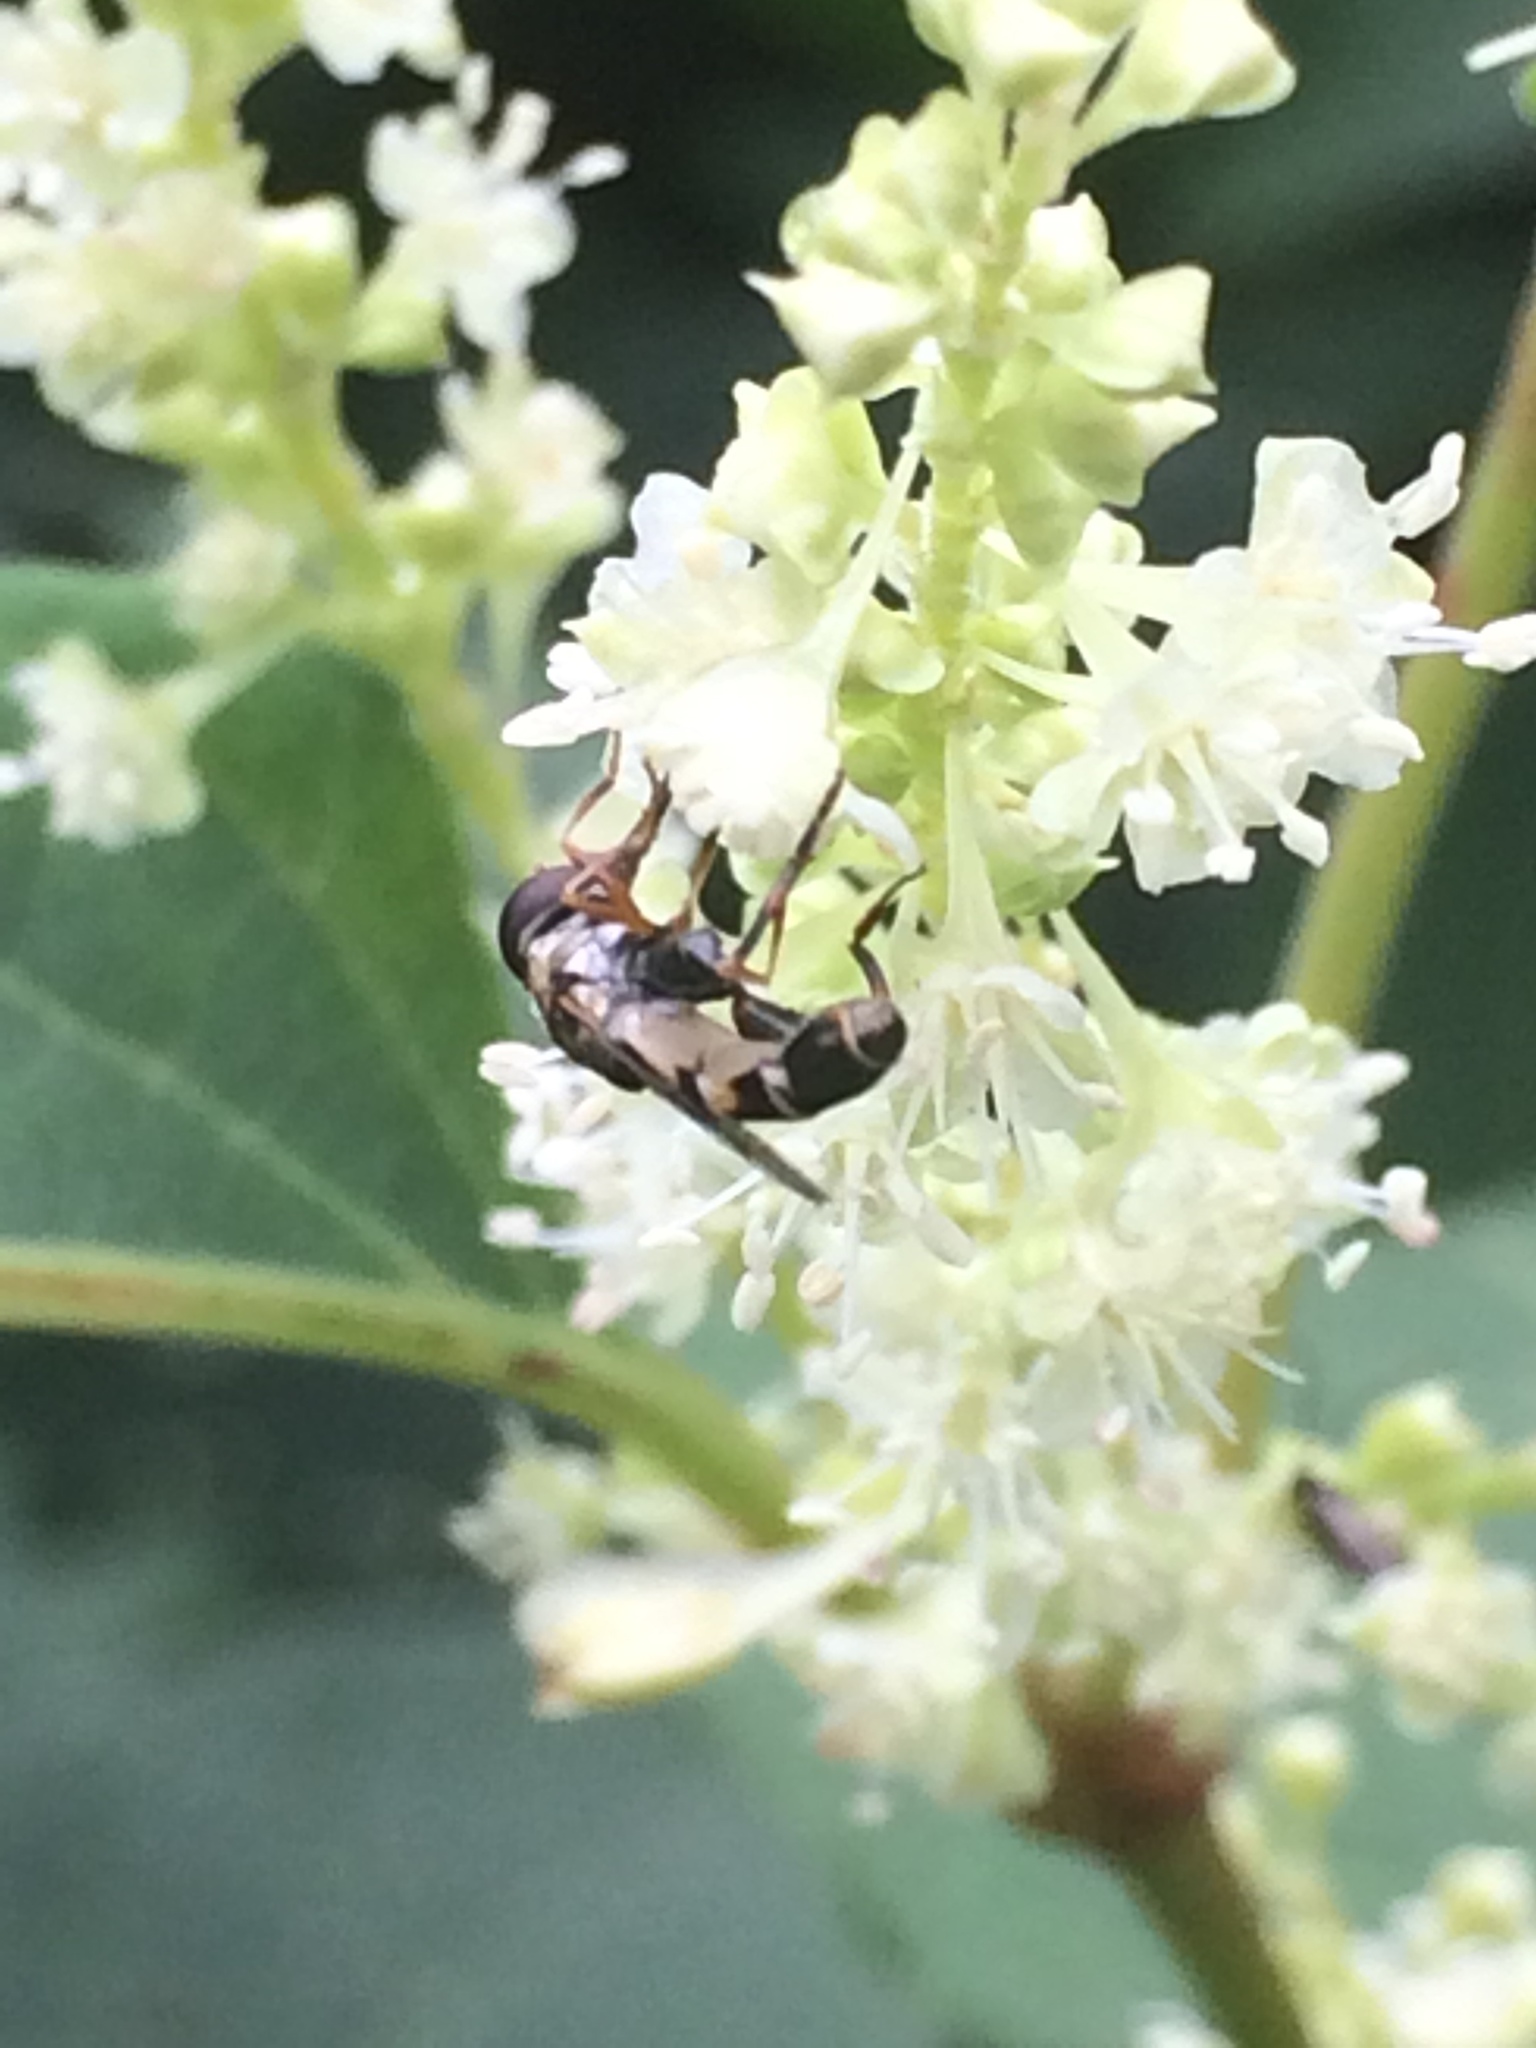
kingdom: Animalia
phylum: Arthropoda
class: Insecta
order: Diptera
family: Syrphidae
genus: Syritta
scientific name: Syritta pipiens
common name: Hover fly
